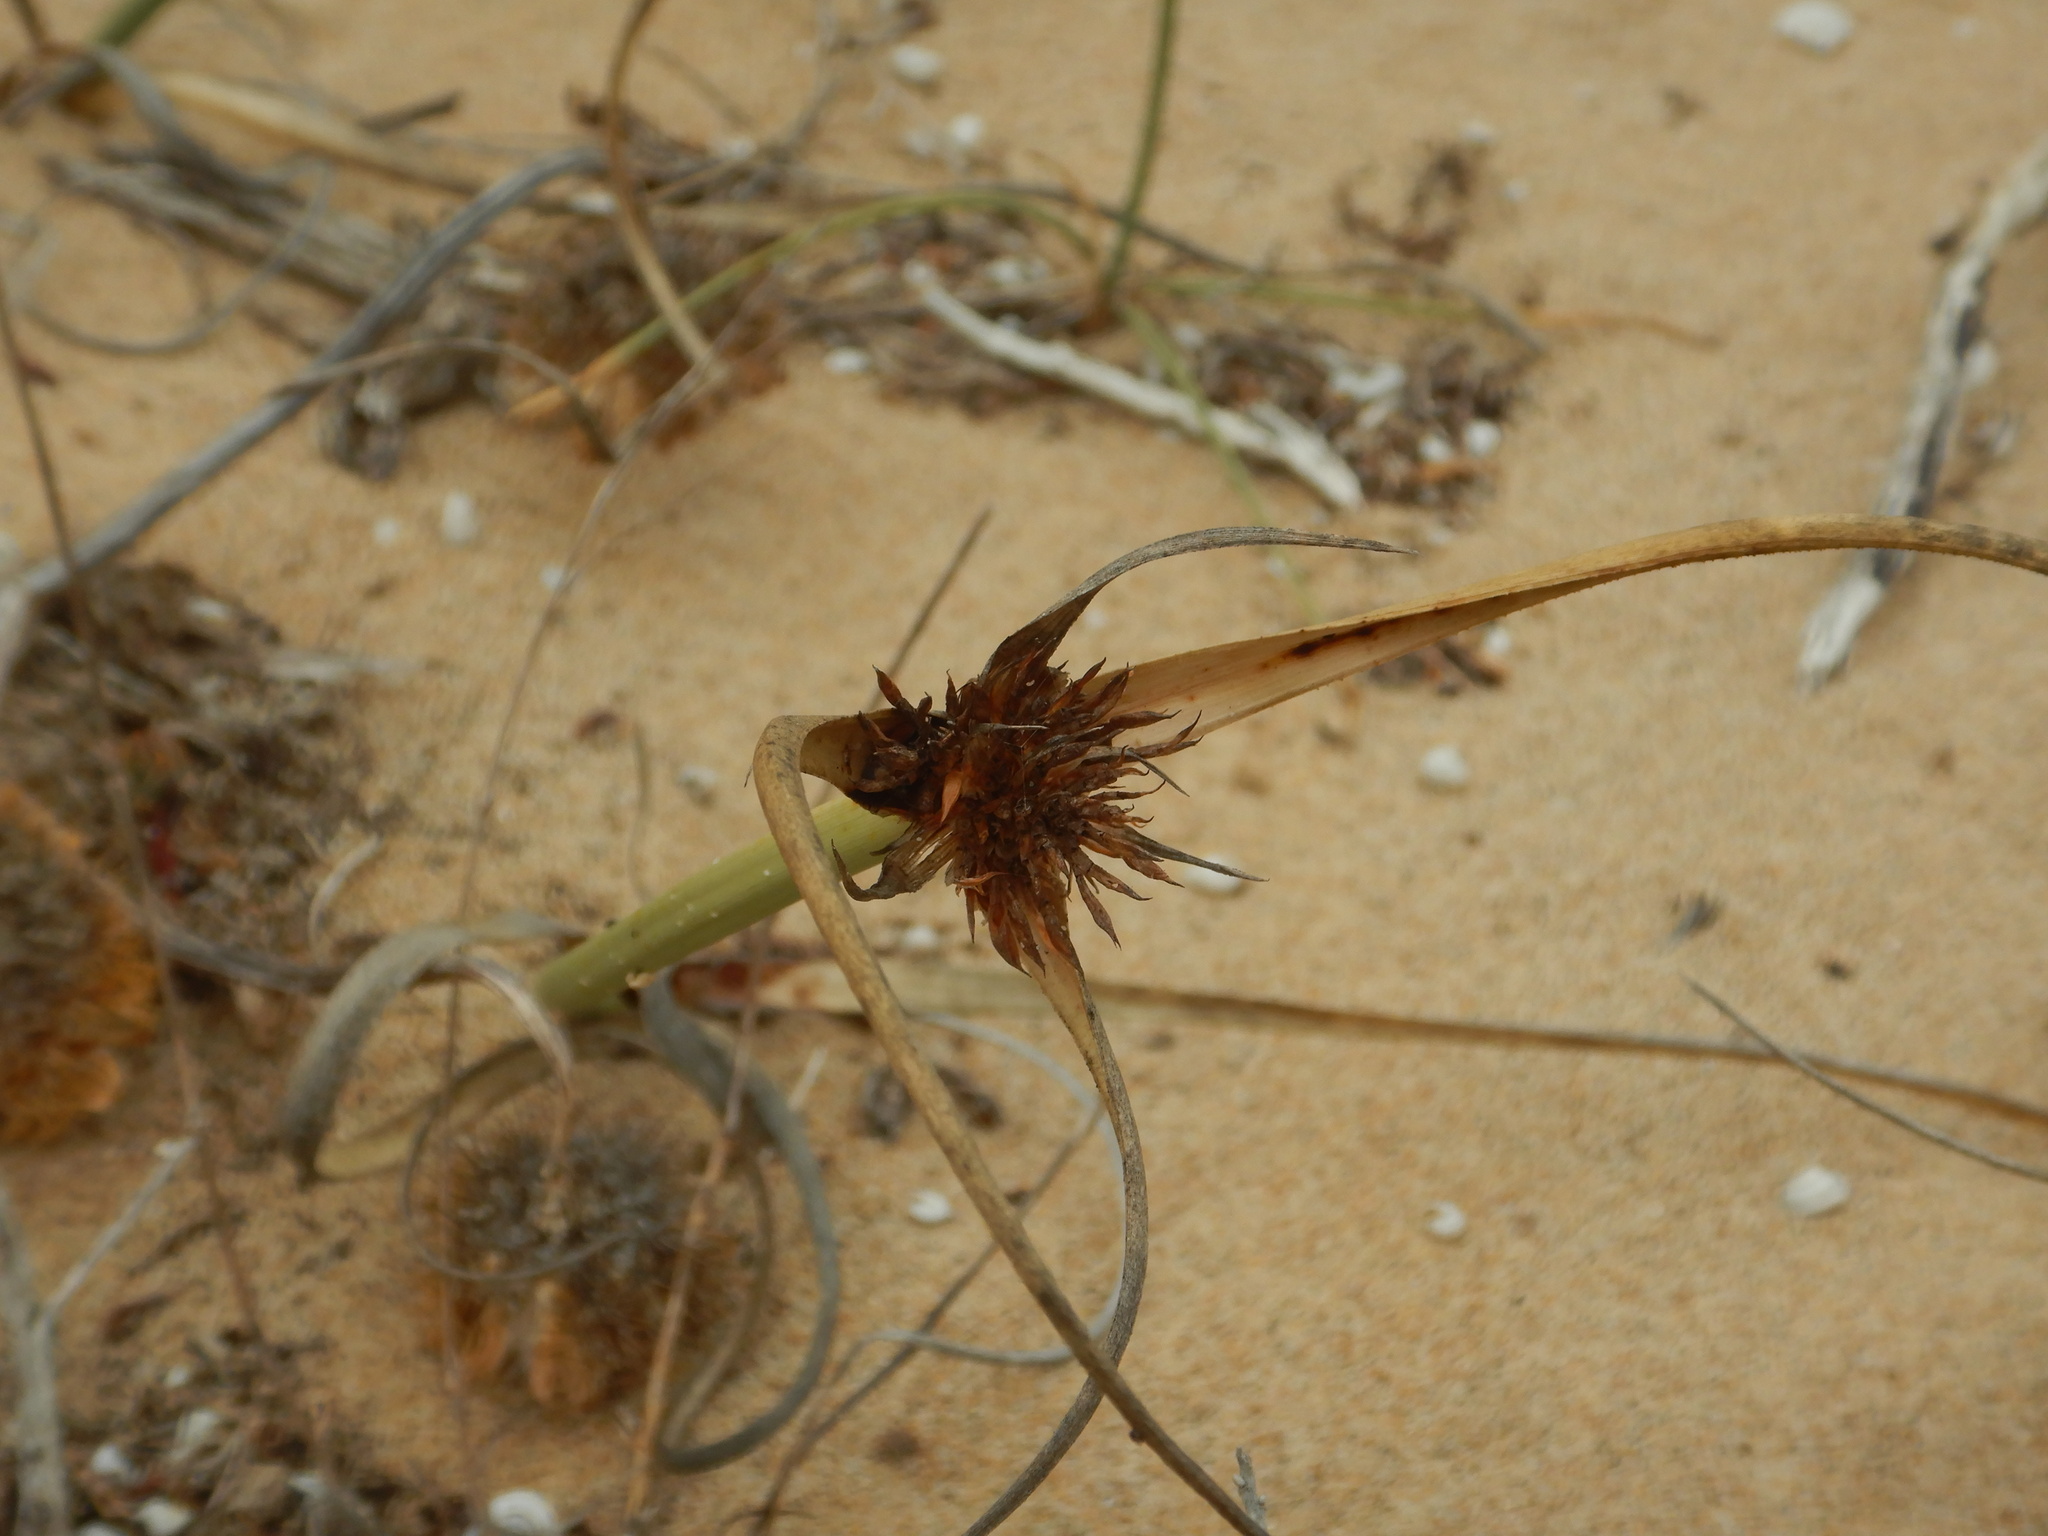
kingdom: Plantae
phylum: Tracheophyta
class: Liliopsida
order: Poales
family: Cyperaceae
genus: Cyperus
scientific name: Cyperus capitatus
